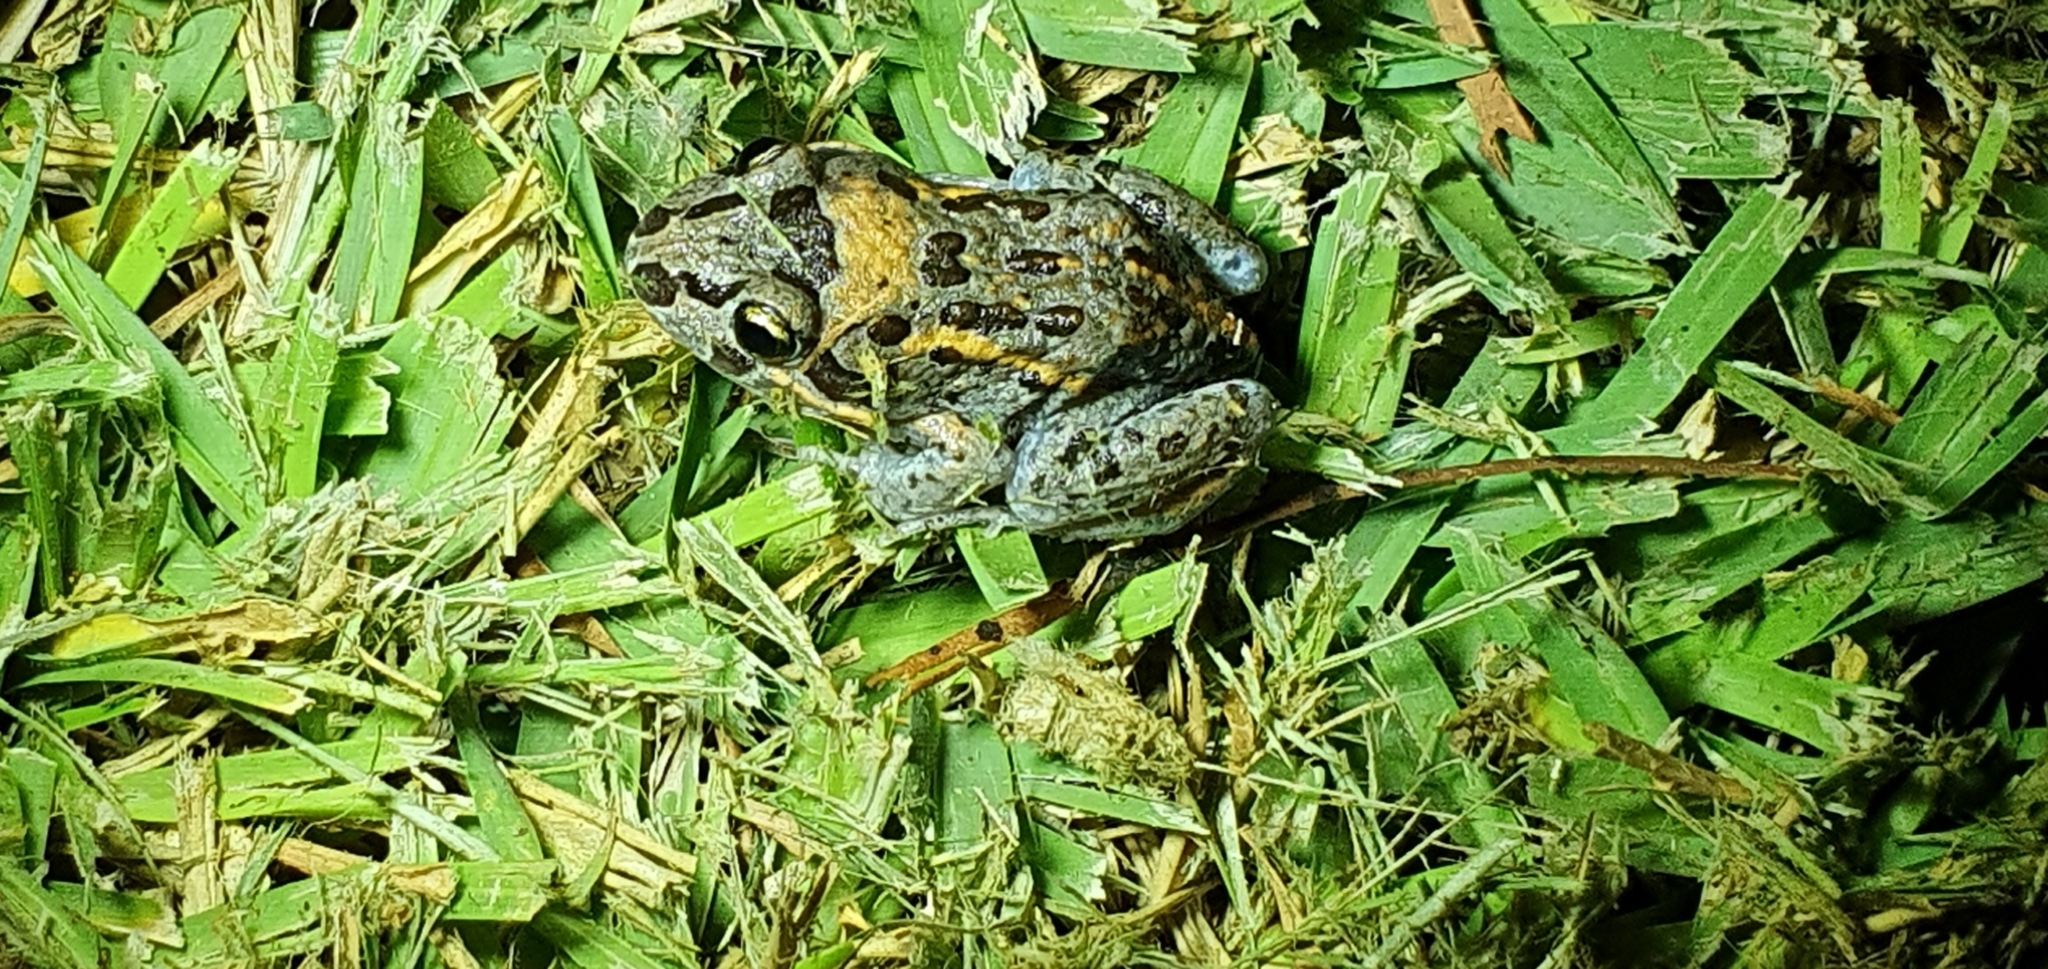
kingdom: Animalia
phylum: Chordata
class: Amphibia
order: Anura
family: Limnodynastidae
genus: Limnodynastes
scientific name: Limnodynastes salmini
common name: Salmon-striped frog
